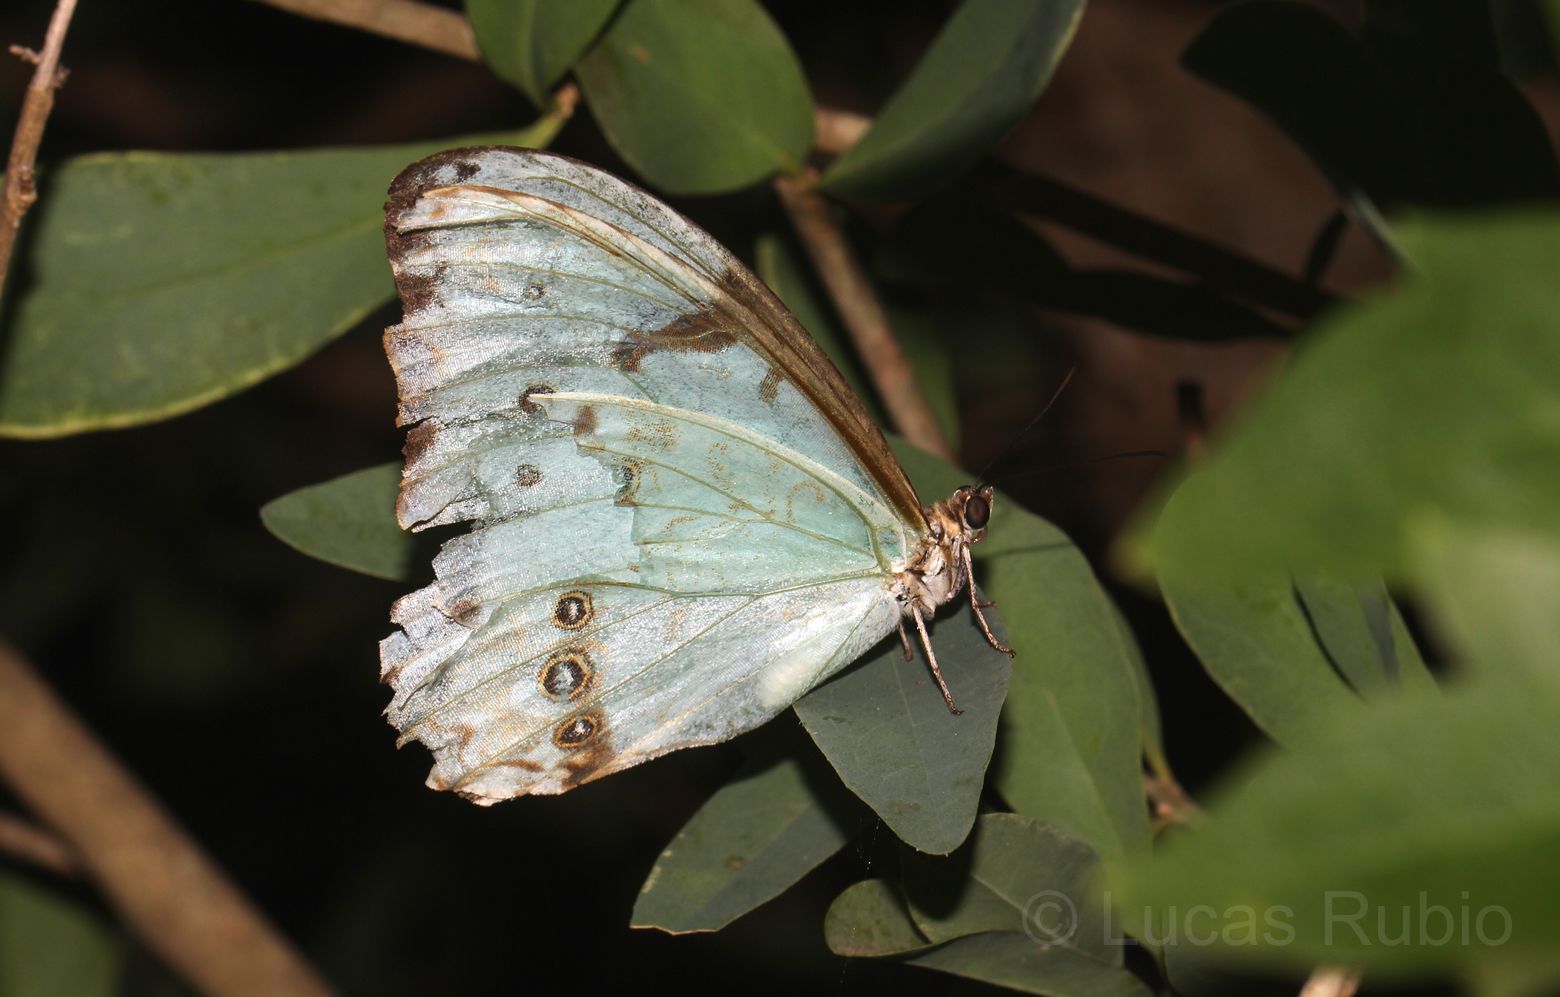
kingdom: Animalia
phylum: Arthropoda
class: Insecta
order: Lepidoptera
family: Nymphalidae
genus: Morpho
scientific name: Morpho epistrophus
